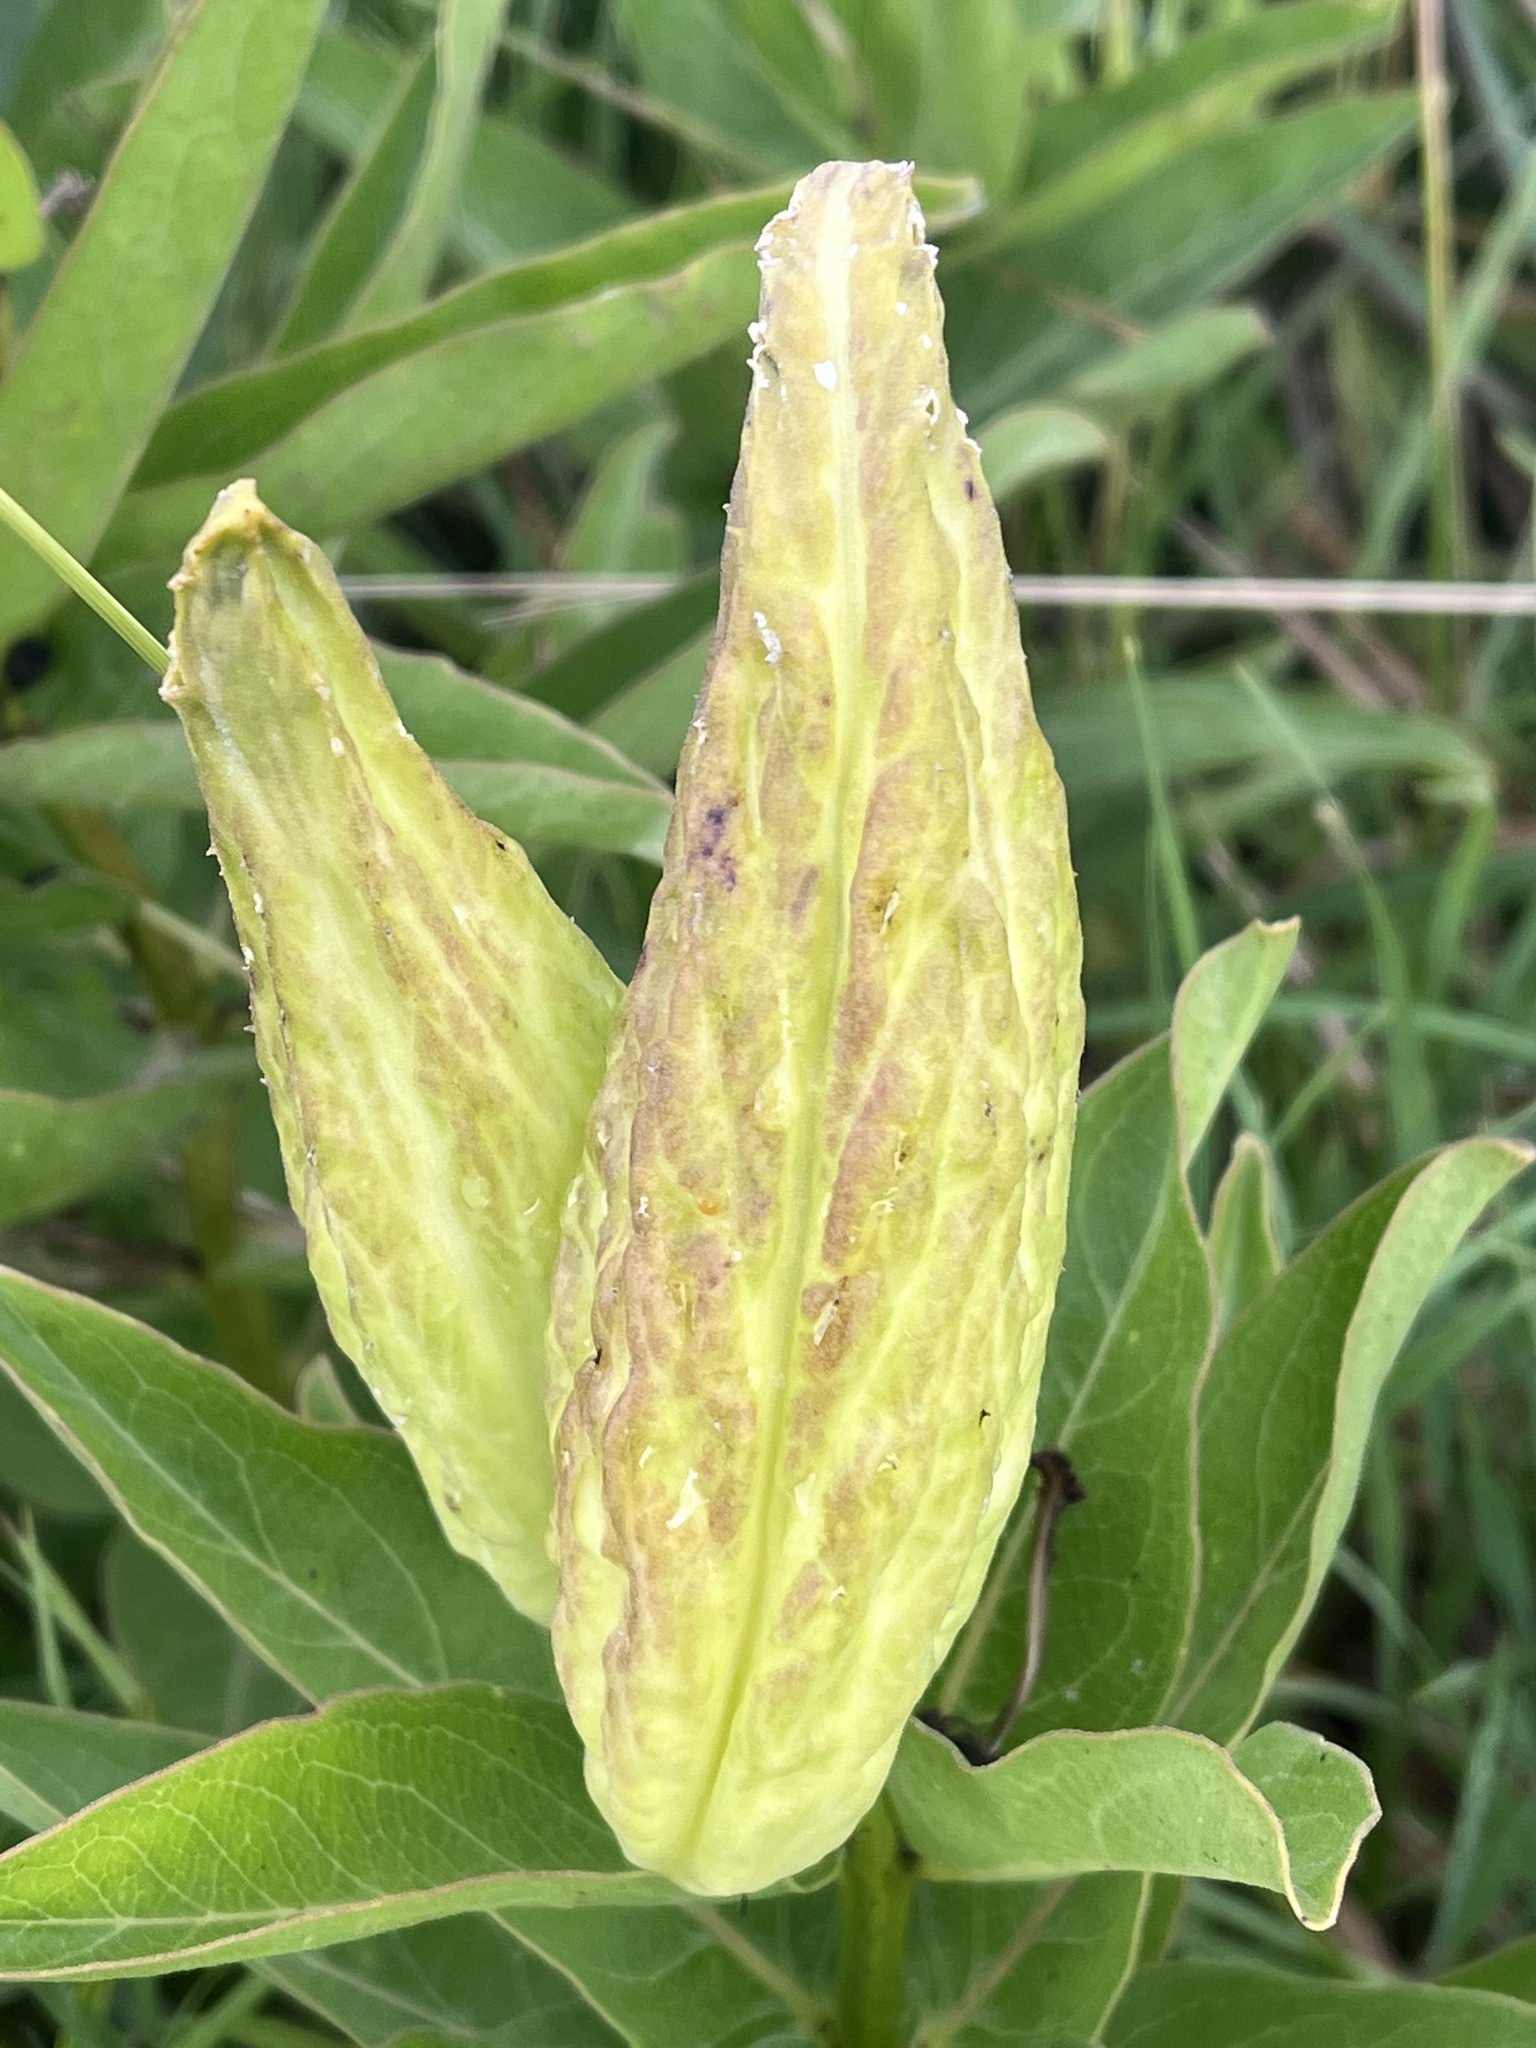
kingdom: Plantae
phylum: Tracheophyta
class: Magnoliopsida
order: Gentianales
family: Apocynaceae
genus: Asclepias
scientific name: Asclepias viridis
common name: Antelope-horns
